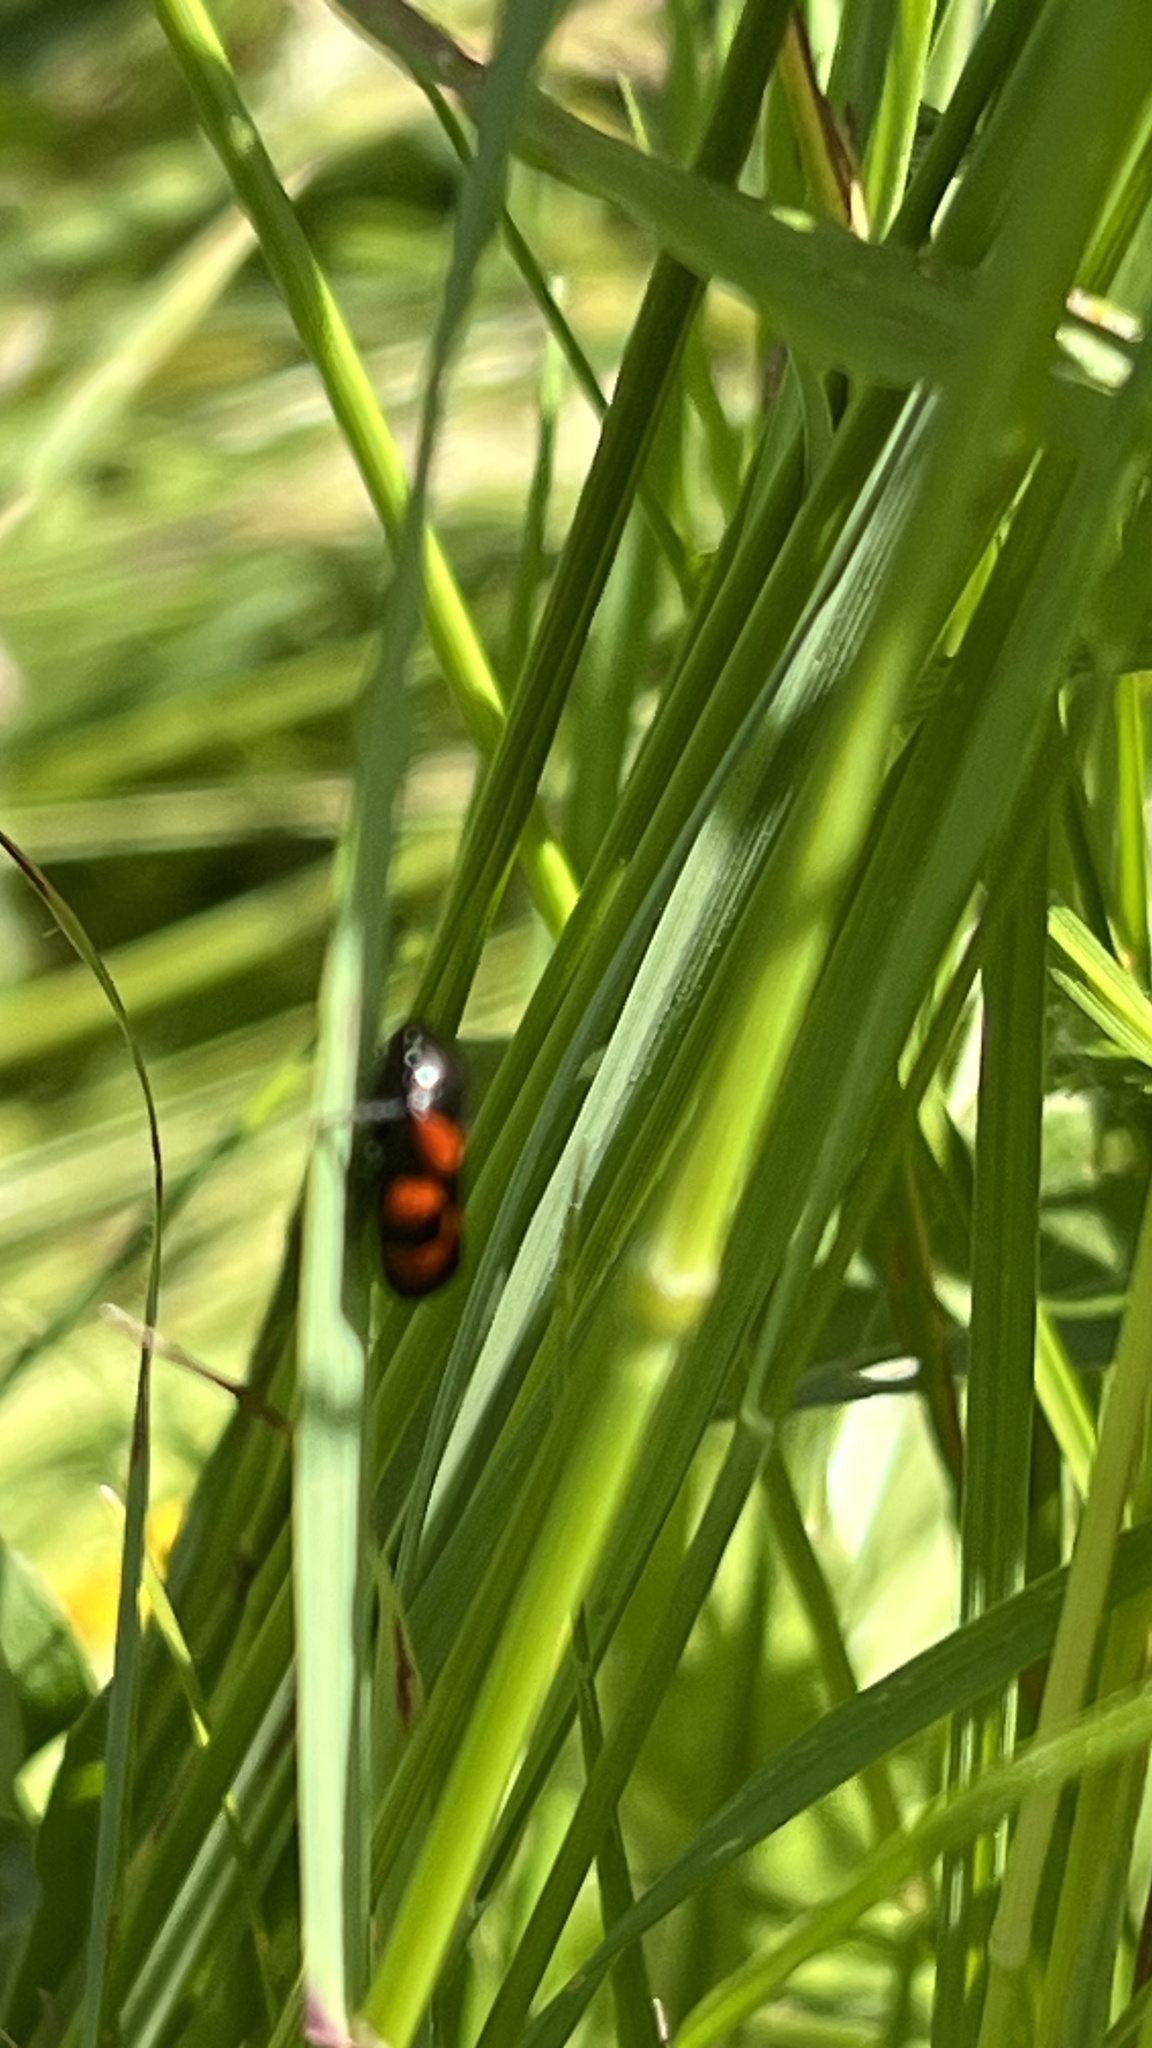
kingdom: Animalia
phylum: Arthropoda
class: Insecta
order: Hemiptera
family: Cercopidae
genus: Cercopis
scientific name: Cercopis vulnerata
